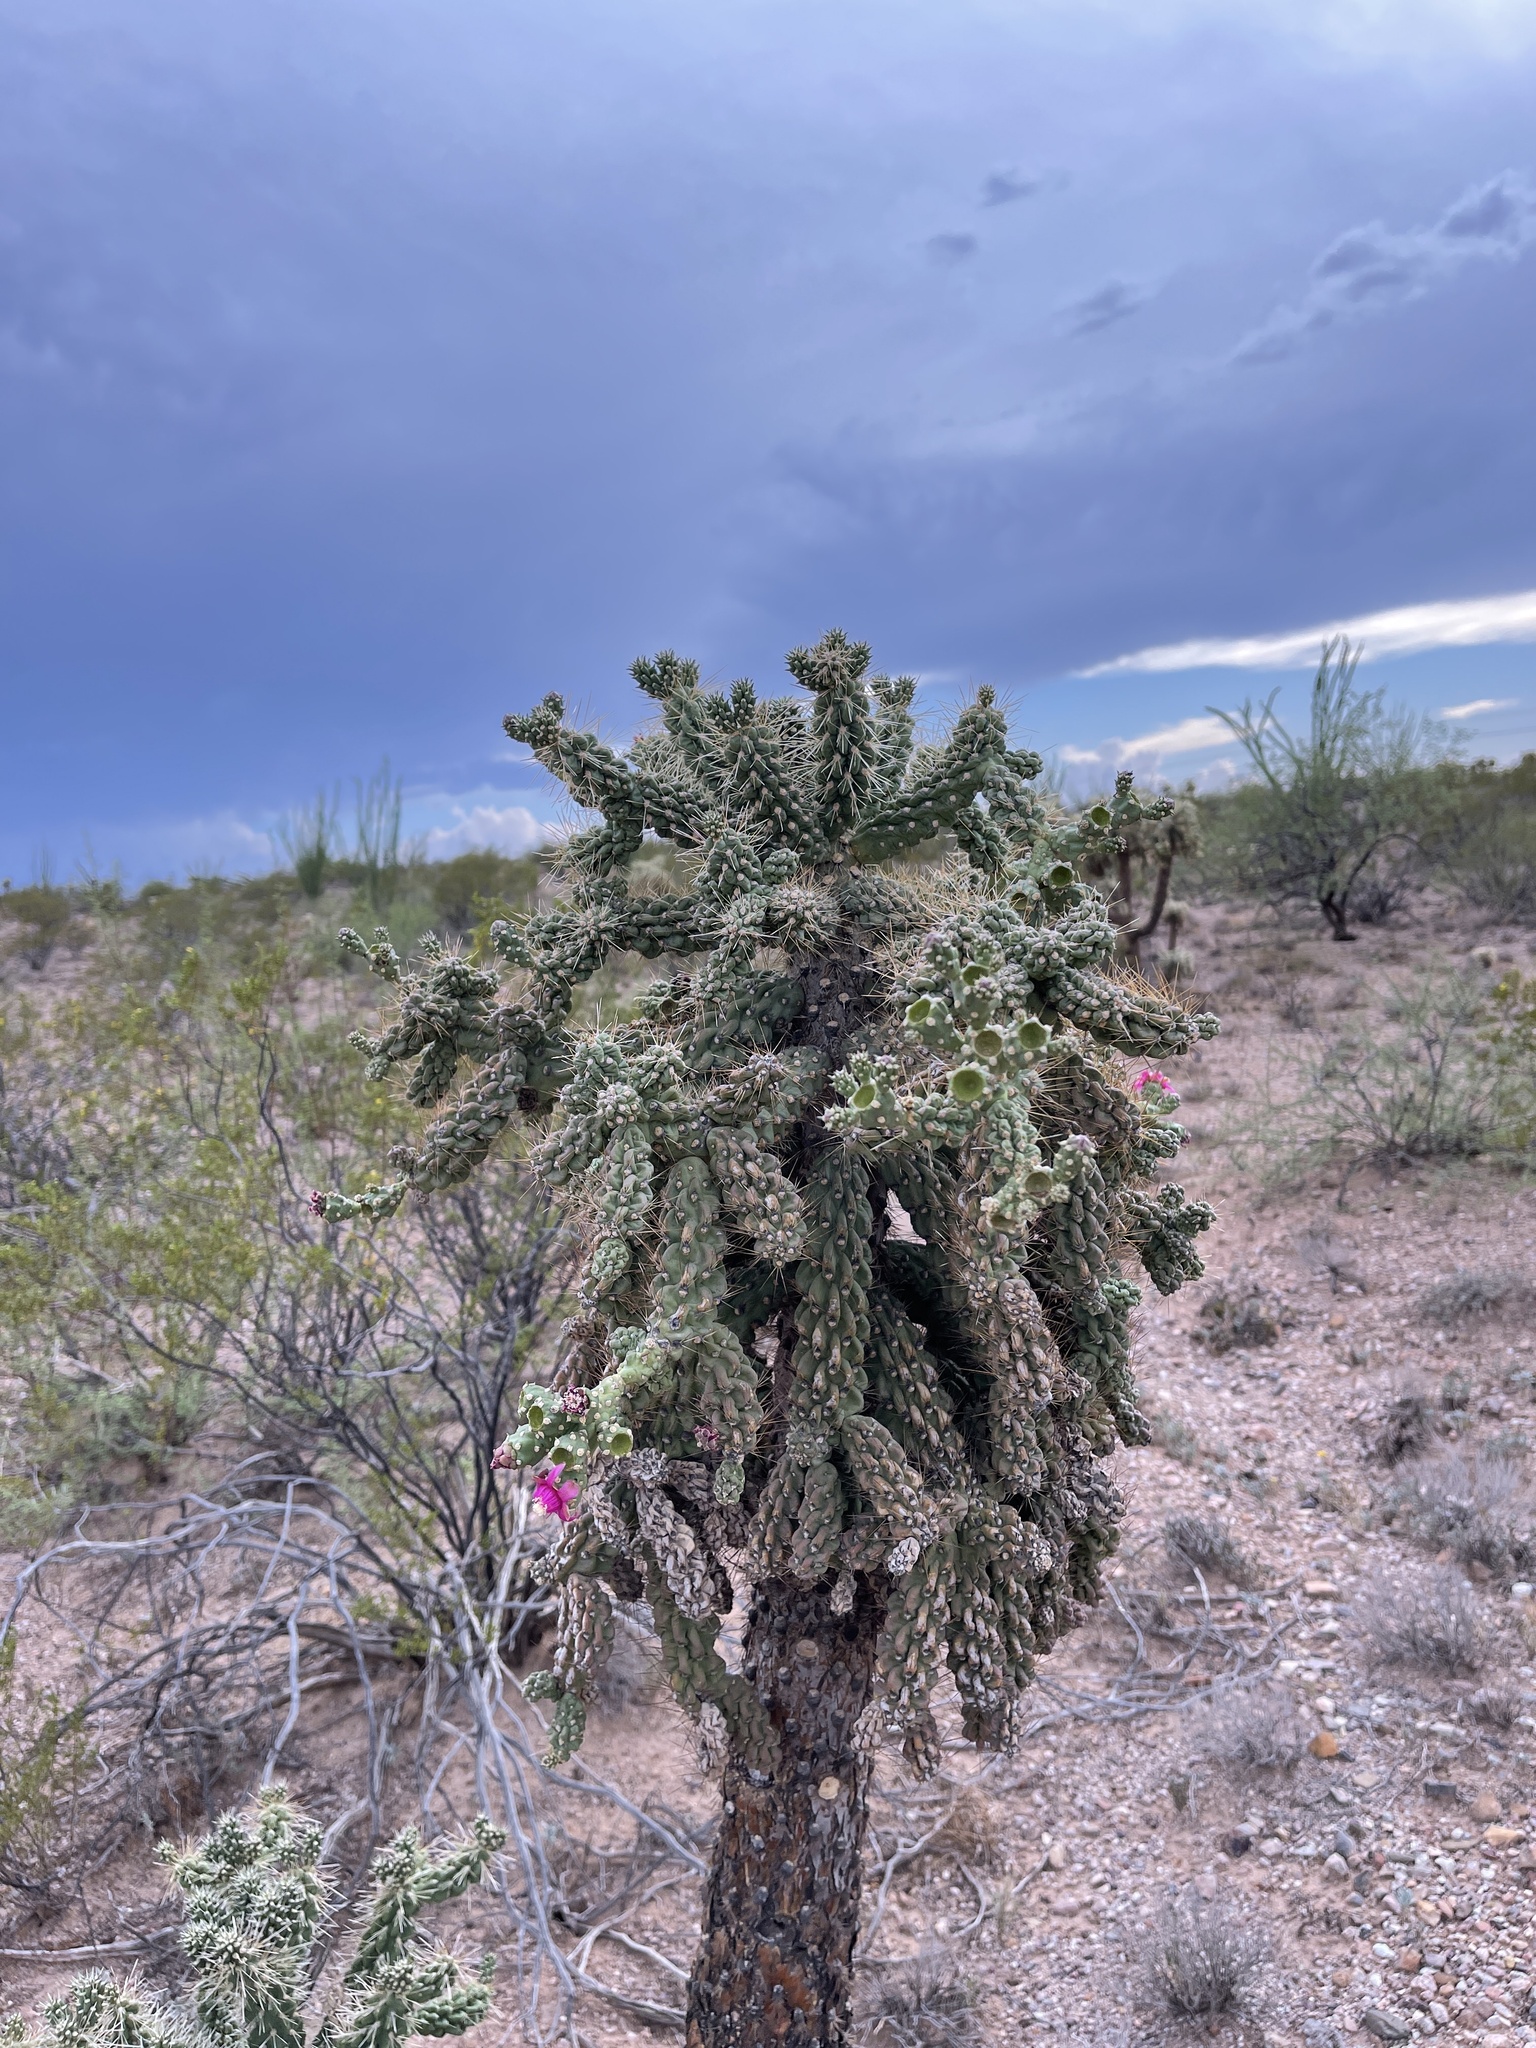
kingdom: Plantae
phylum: Tracheophyta
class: Magnoliopsida
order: Caryophyllales
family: Cactaceae
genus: Cylindropuntia
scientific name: Cylindropuntia fulgida
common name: Jumping cholla
